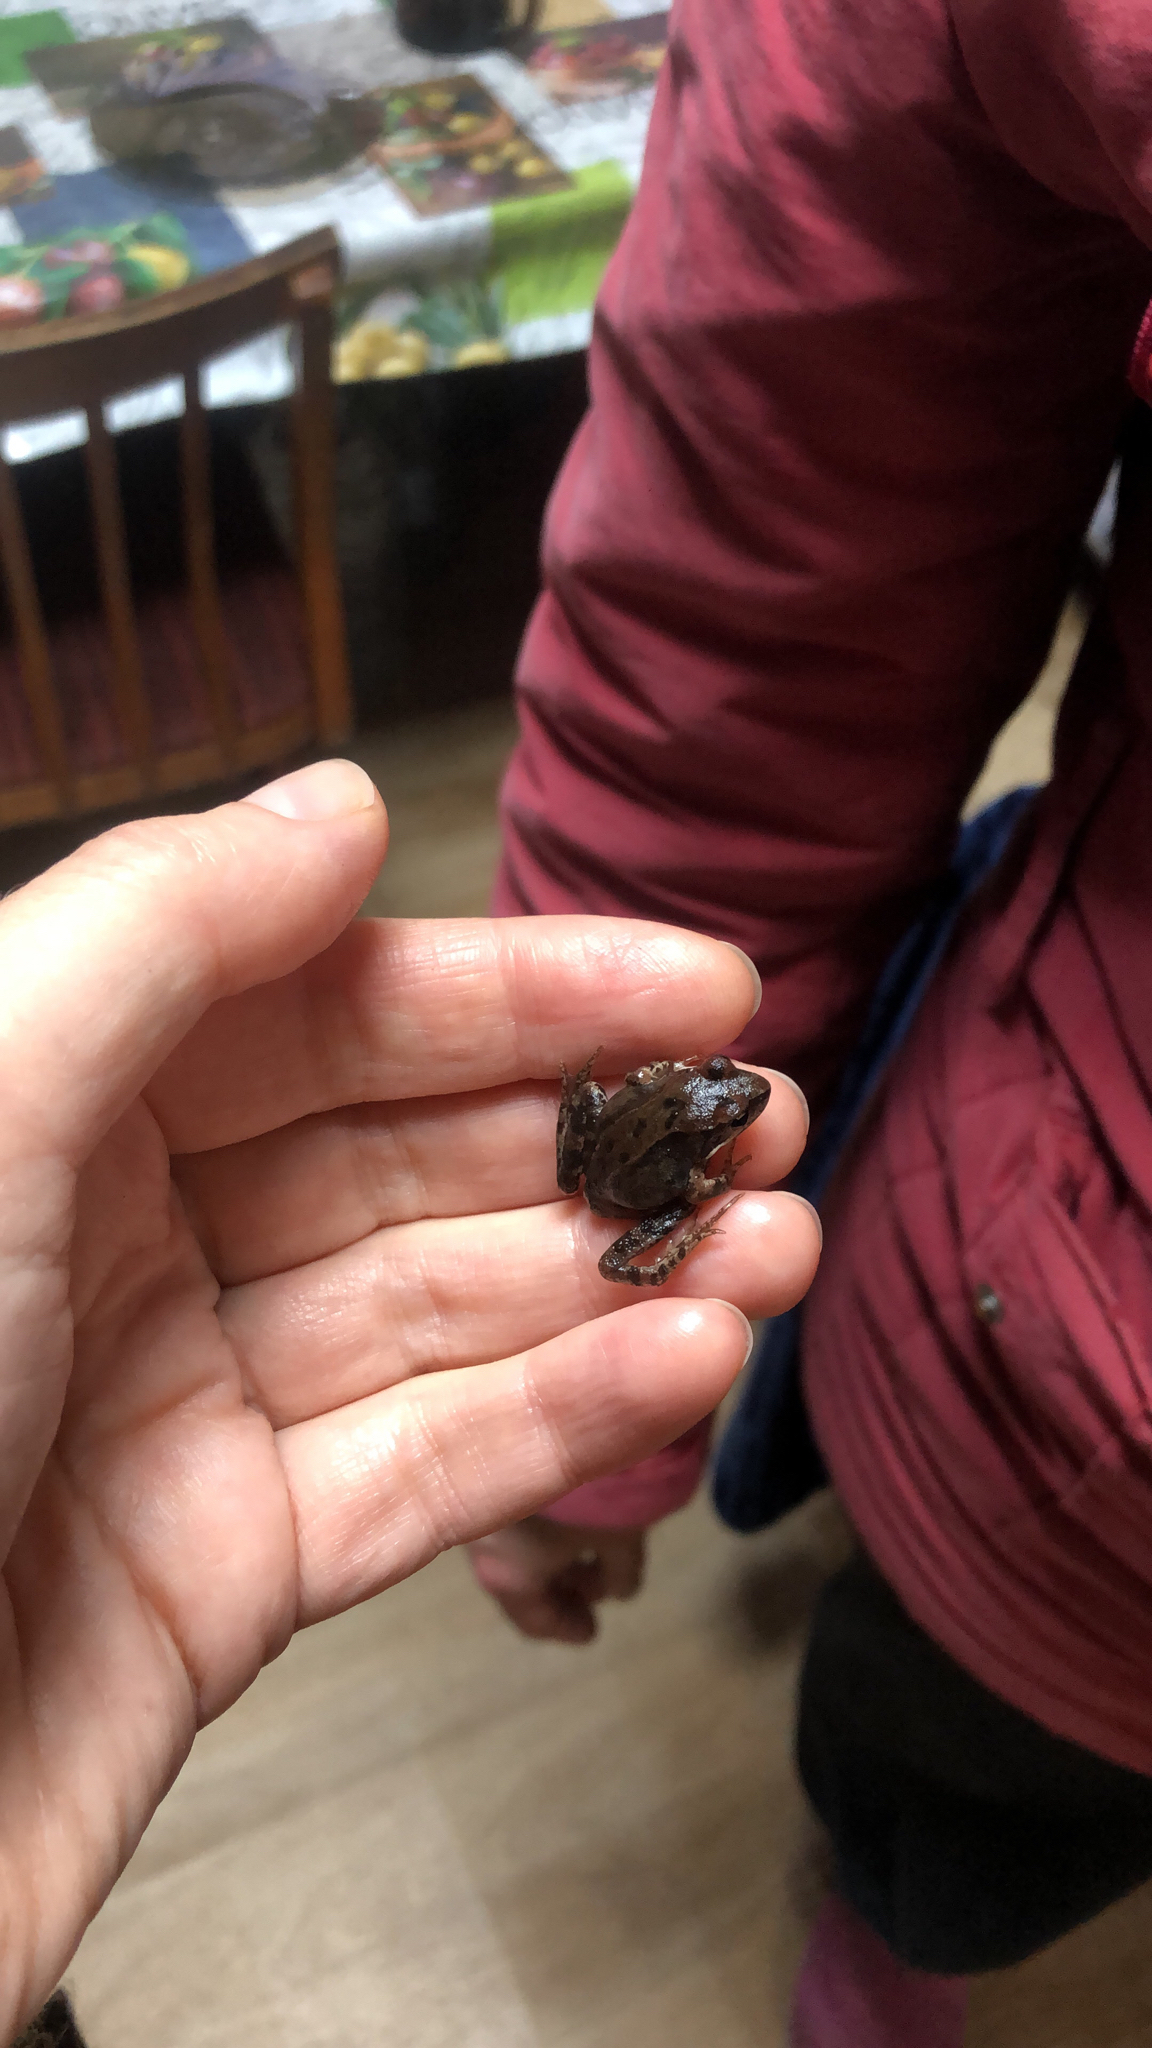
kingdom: Animalia
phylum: Chordata
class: Amphibia
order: Anura
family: Ranidae
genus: Rana
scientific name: Rana temporaria
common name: Common frog
